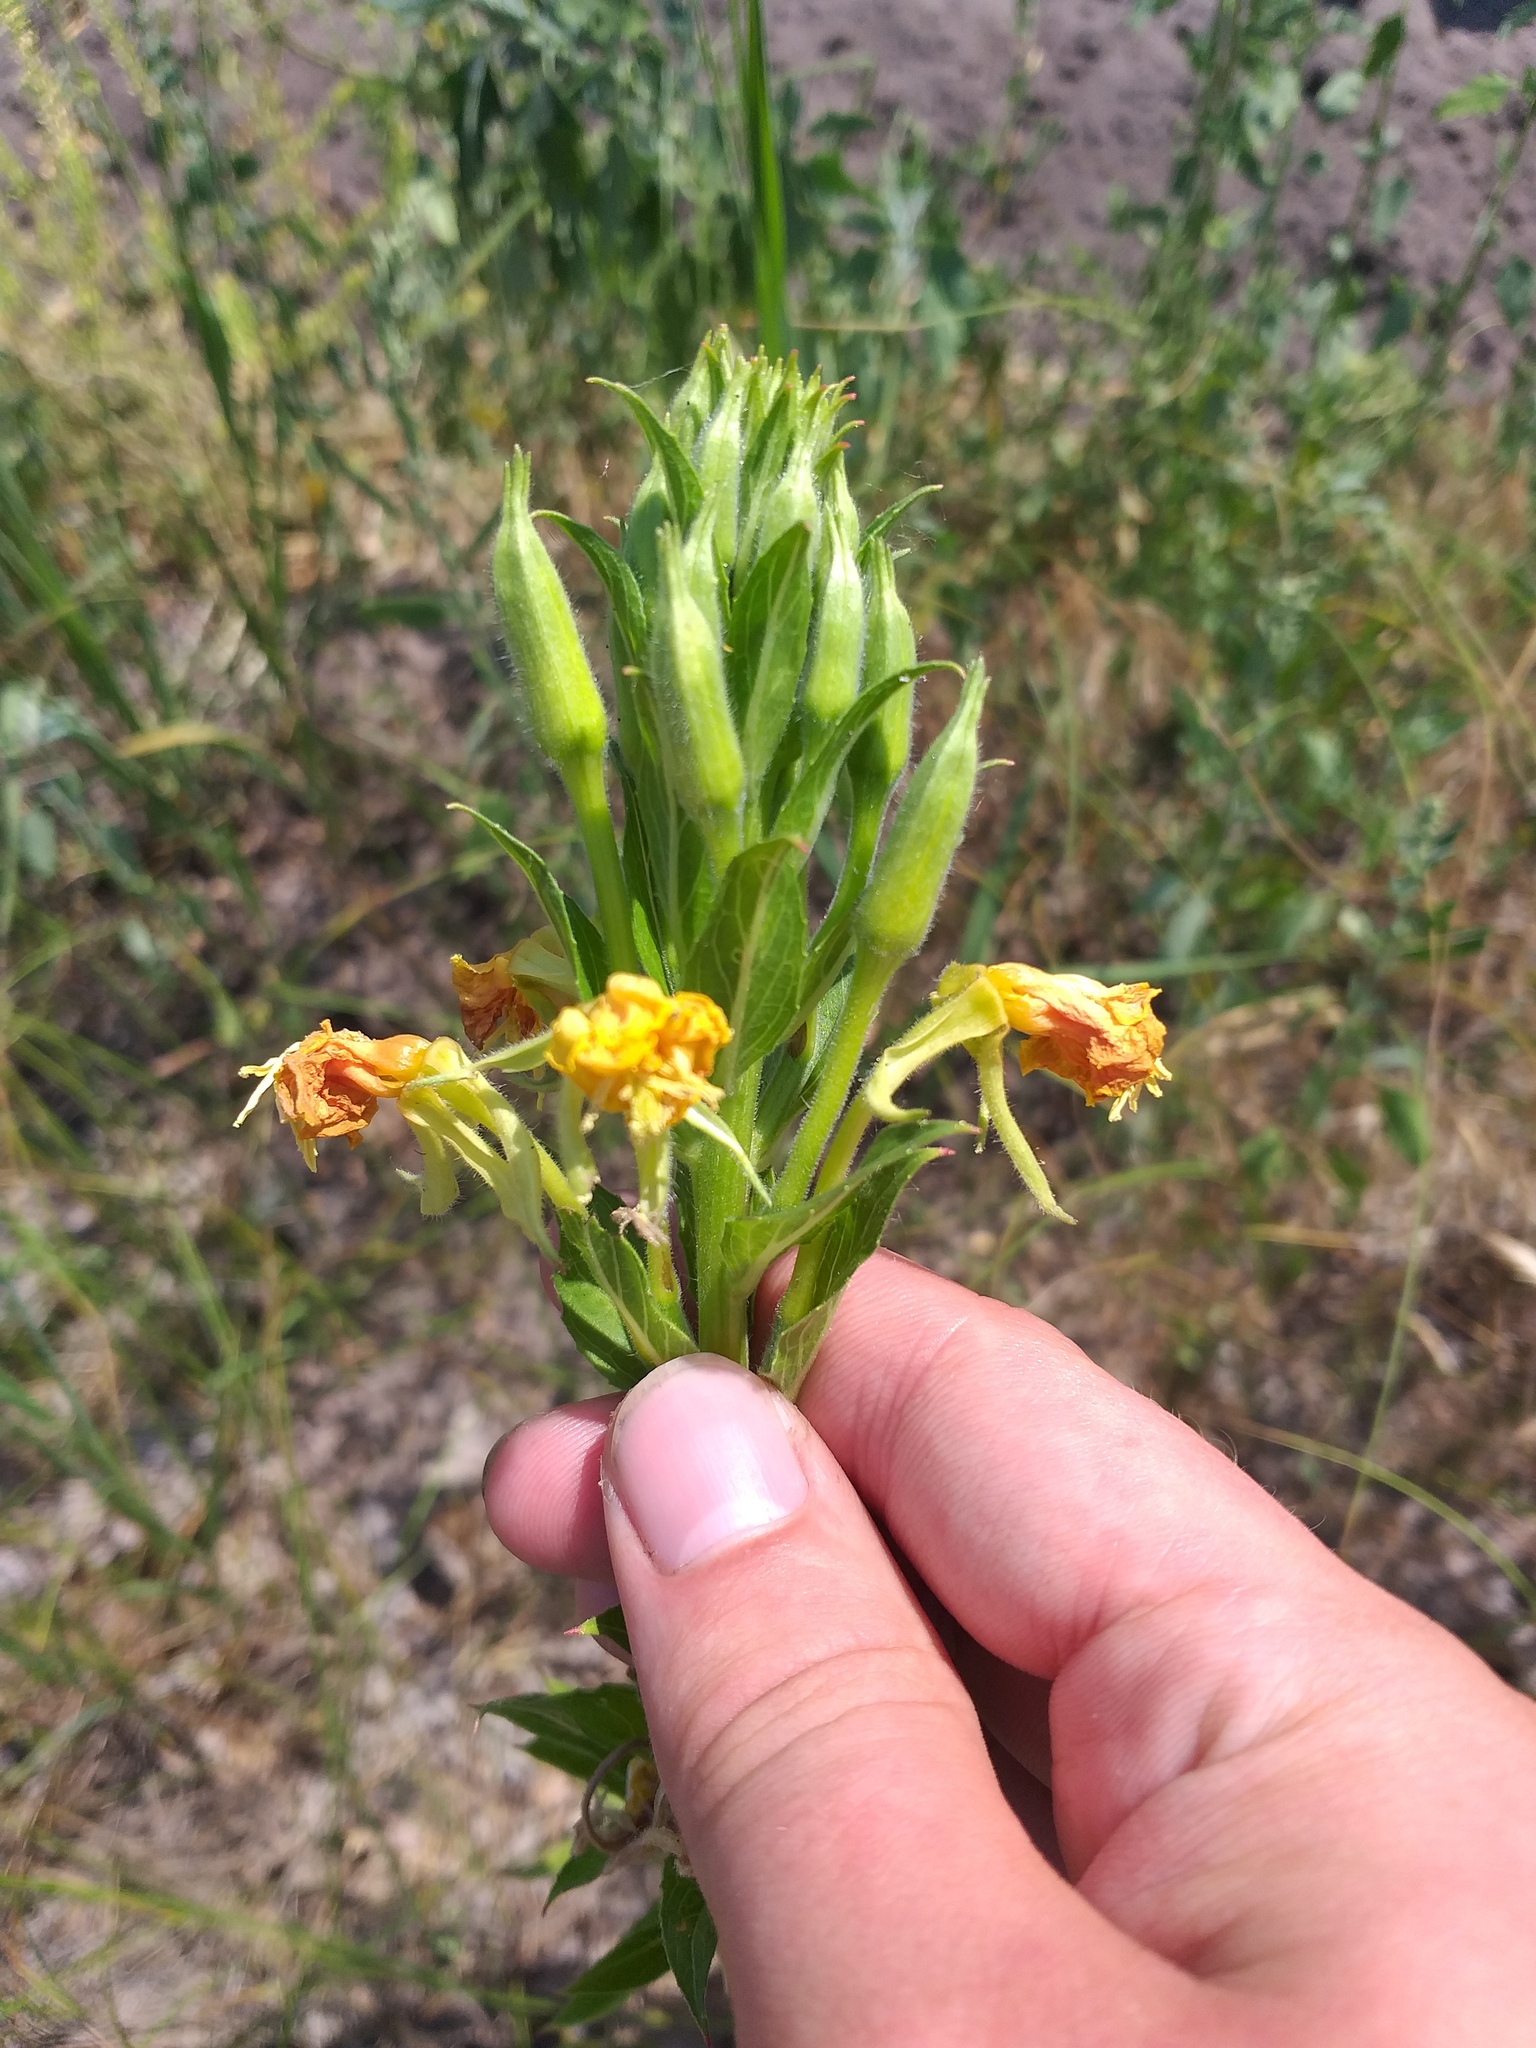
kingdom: Plantae
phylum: Tracheophyta
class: Magnoliopsida
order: Myrtales
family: Onagraceae
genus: Oenothera
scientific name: Oenothera biennis
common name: Common evening-primrose
